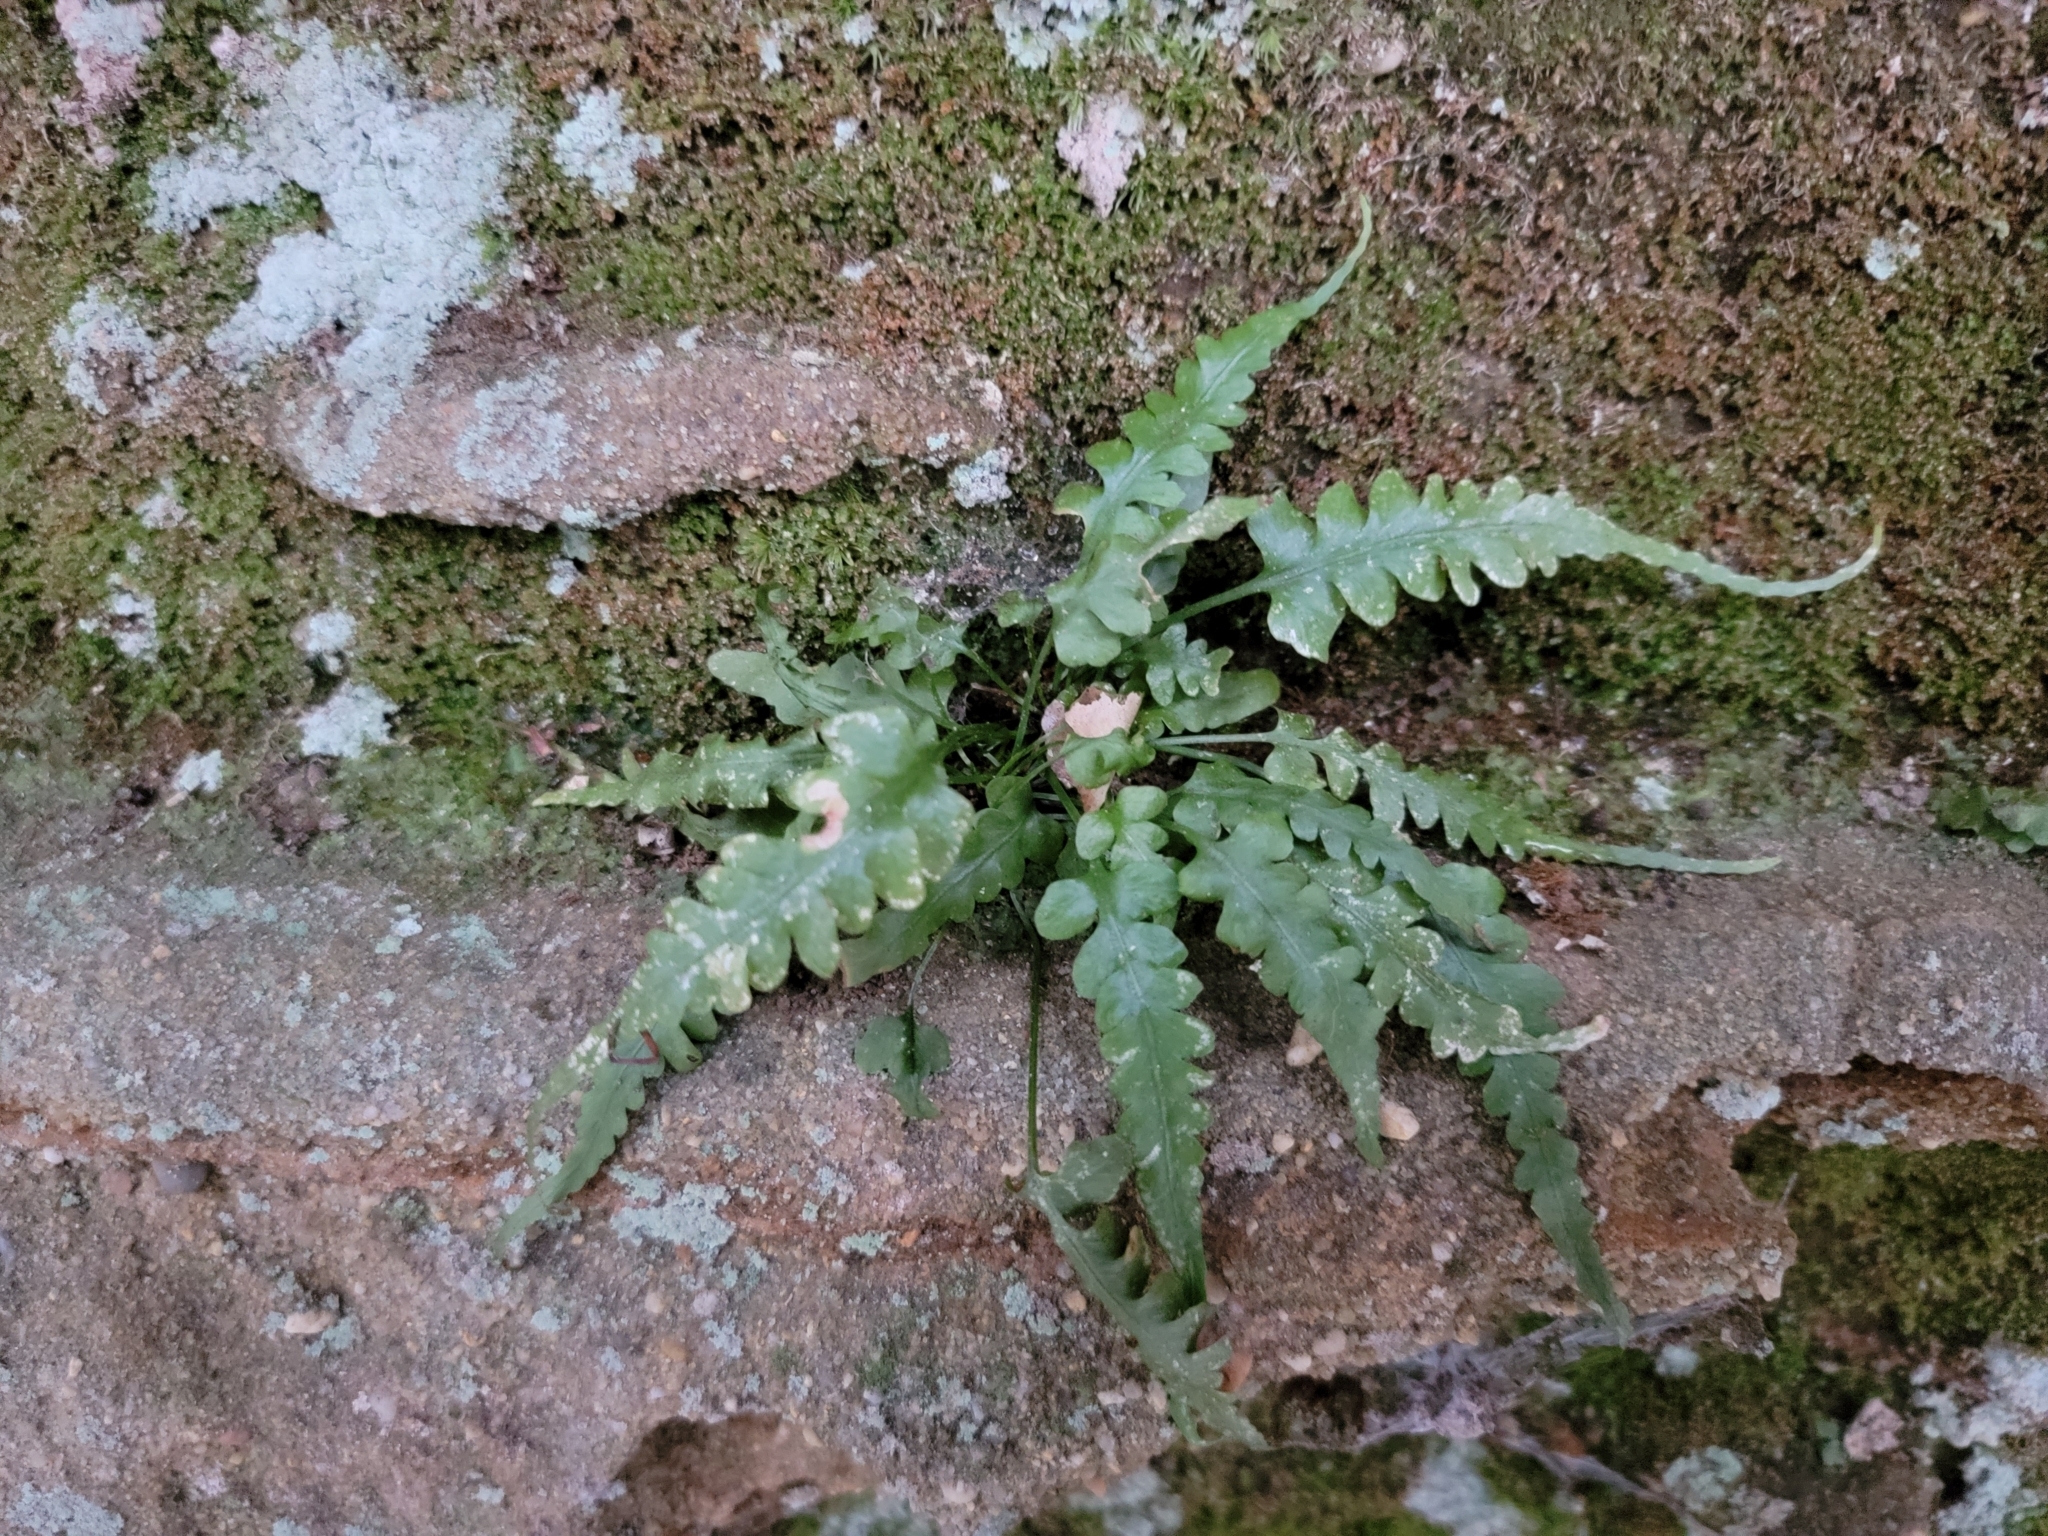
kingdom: Plantae
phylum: Tracheophyta
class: Polypodiopsida
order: Polypodiales
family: Aspleniaceae
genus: Asplenium
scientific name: Asplenium pinnatifidum
